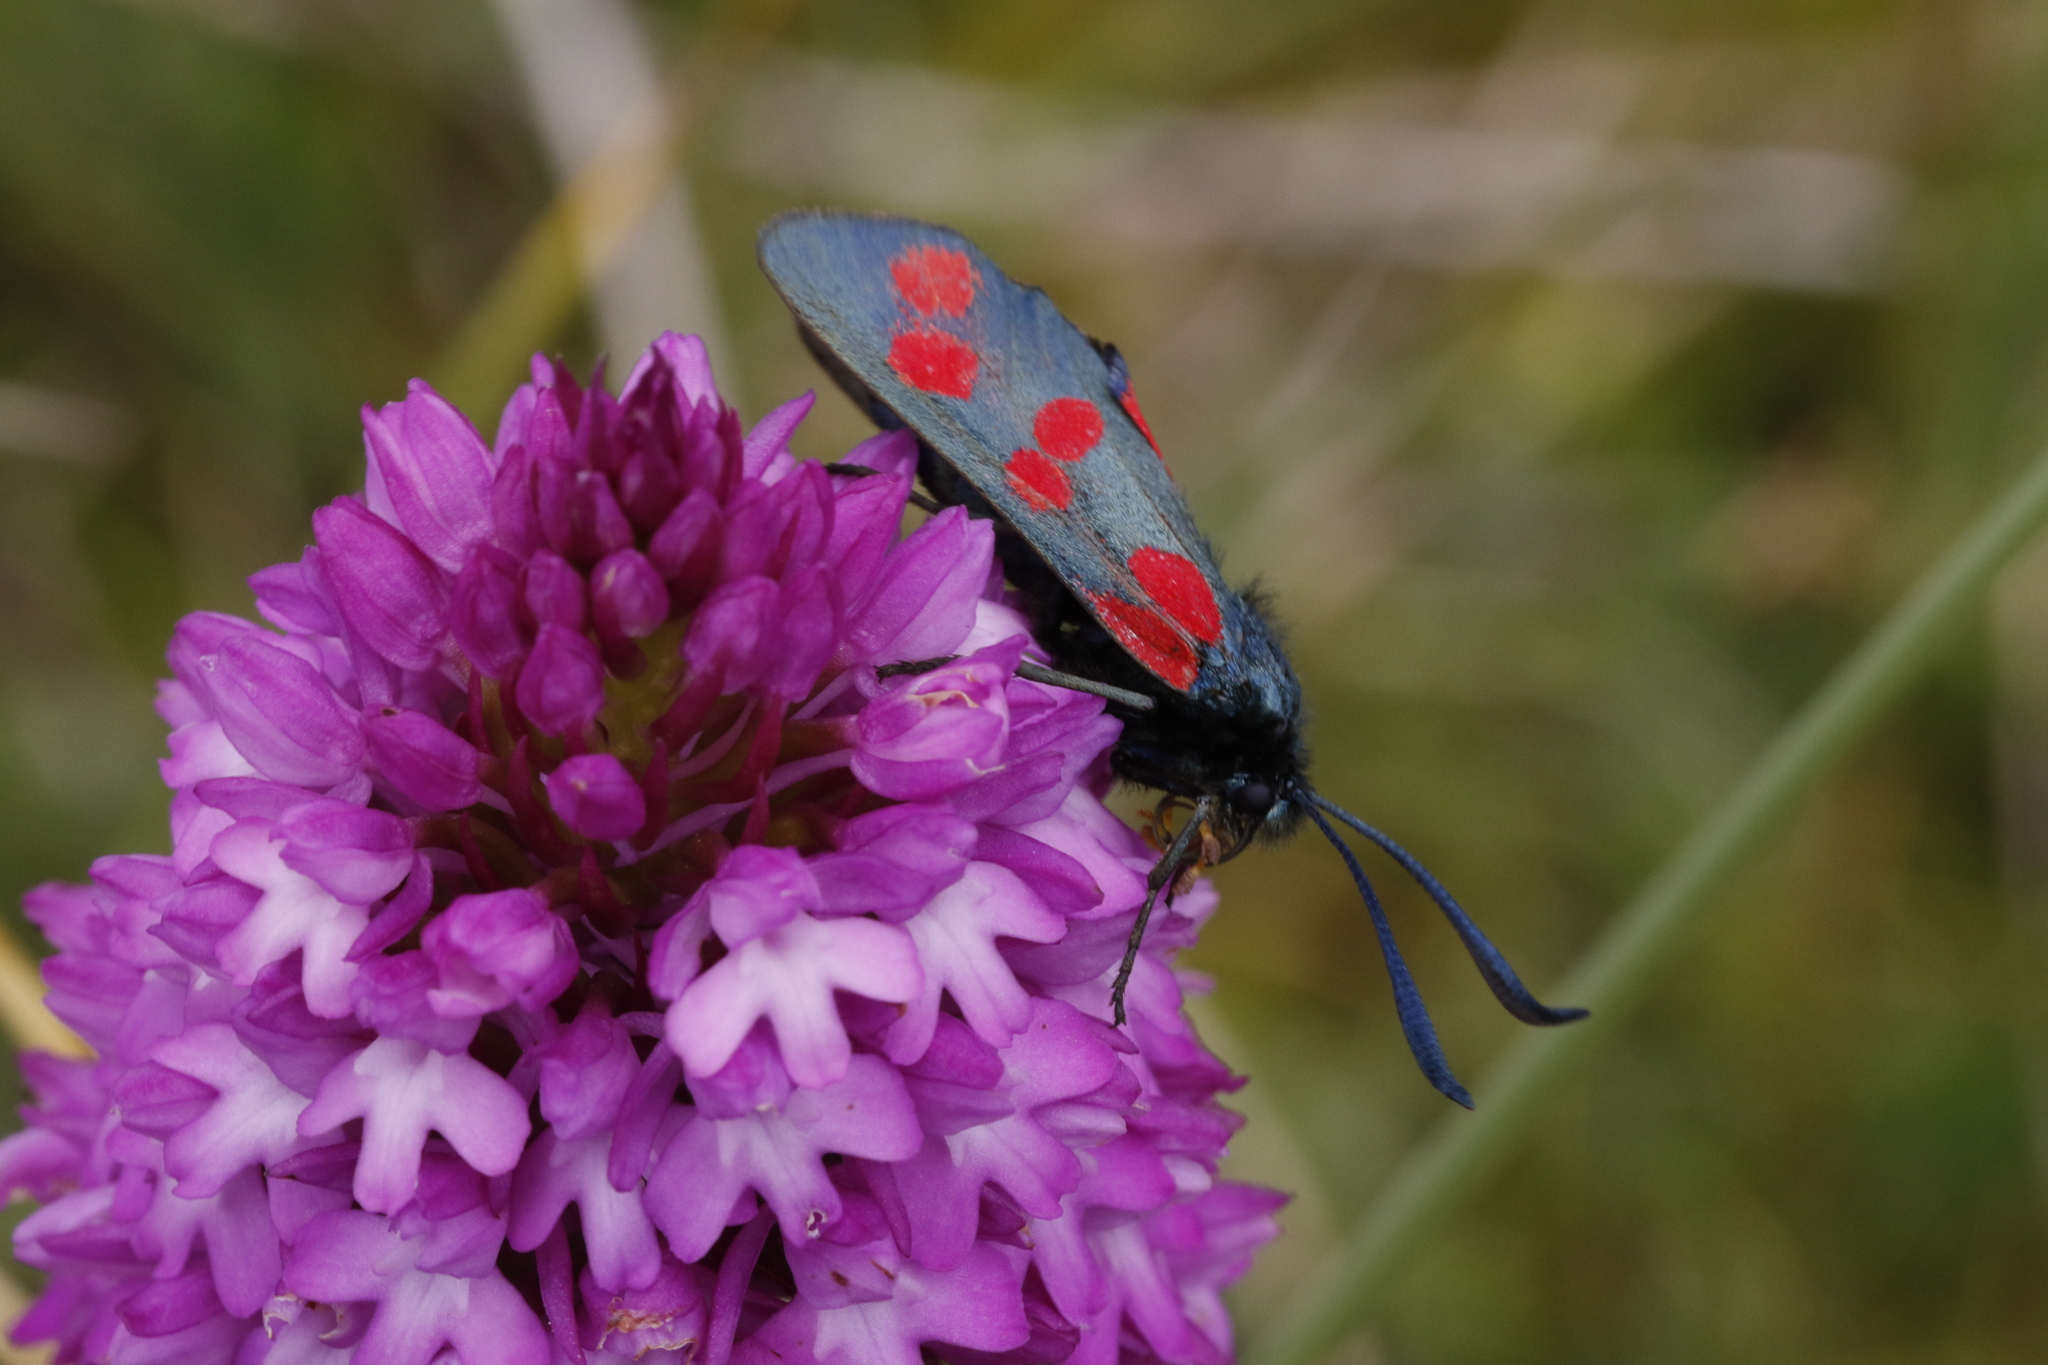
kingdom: Animalia
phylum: Arthropoda
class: Insecta
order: Lepidoptera
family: Zygaenidae
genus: Zygaena
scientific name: Zygaena filipendulae
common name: Six-spot burnet
